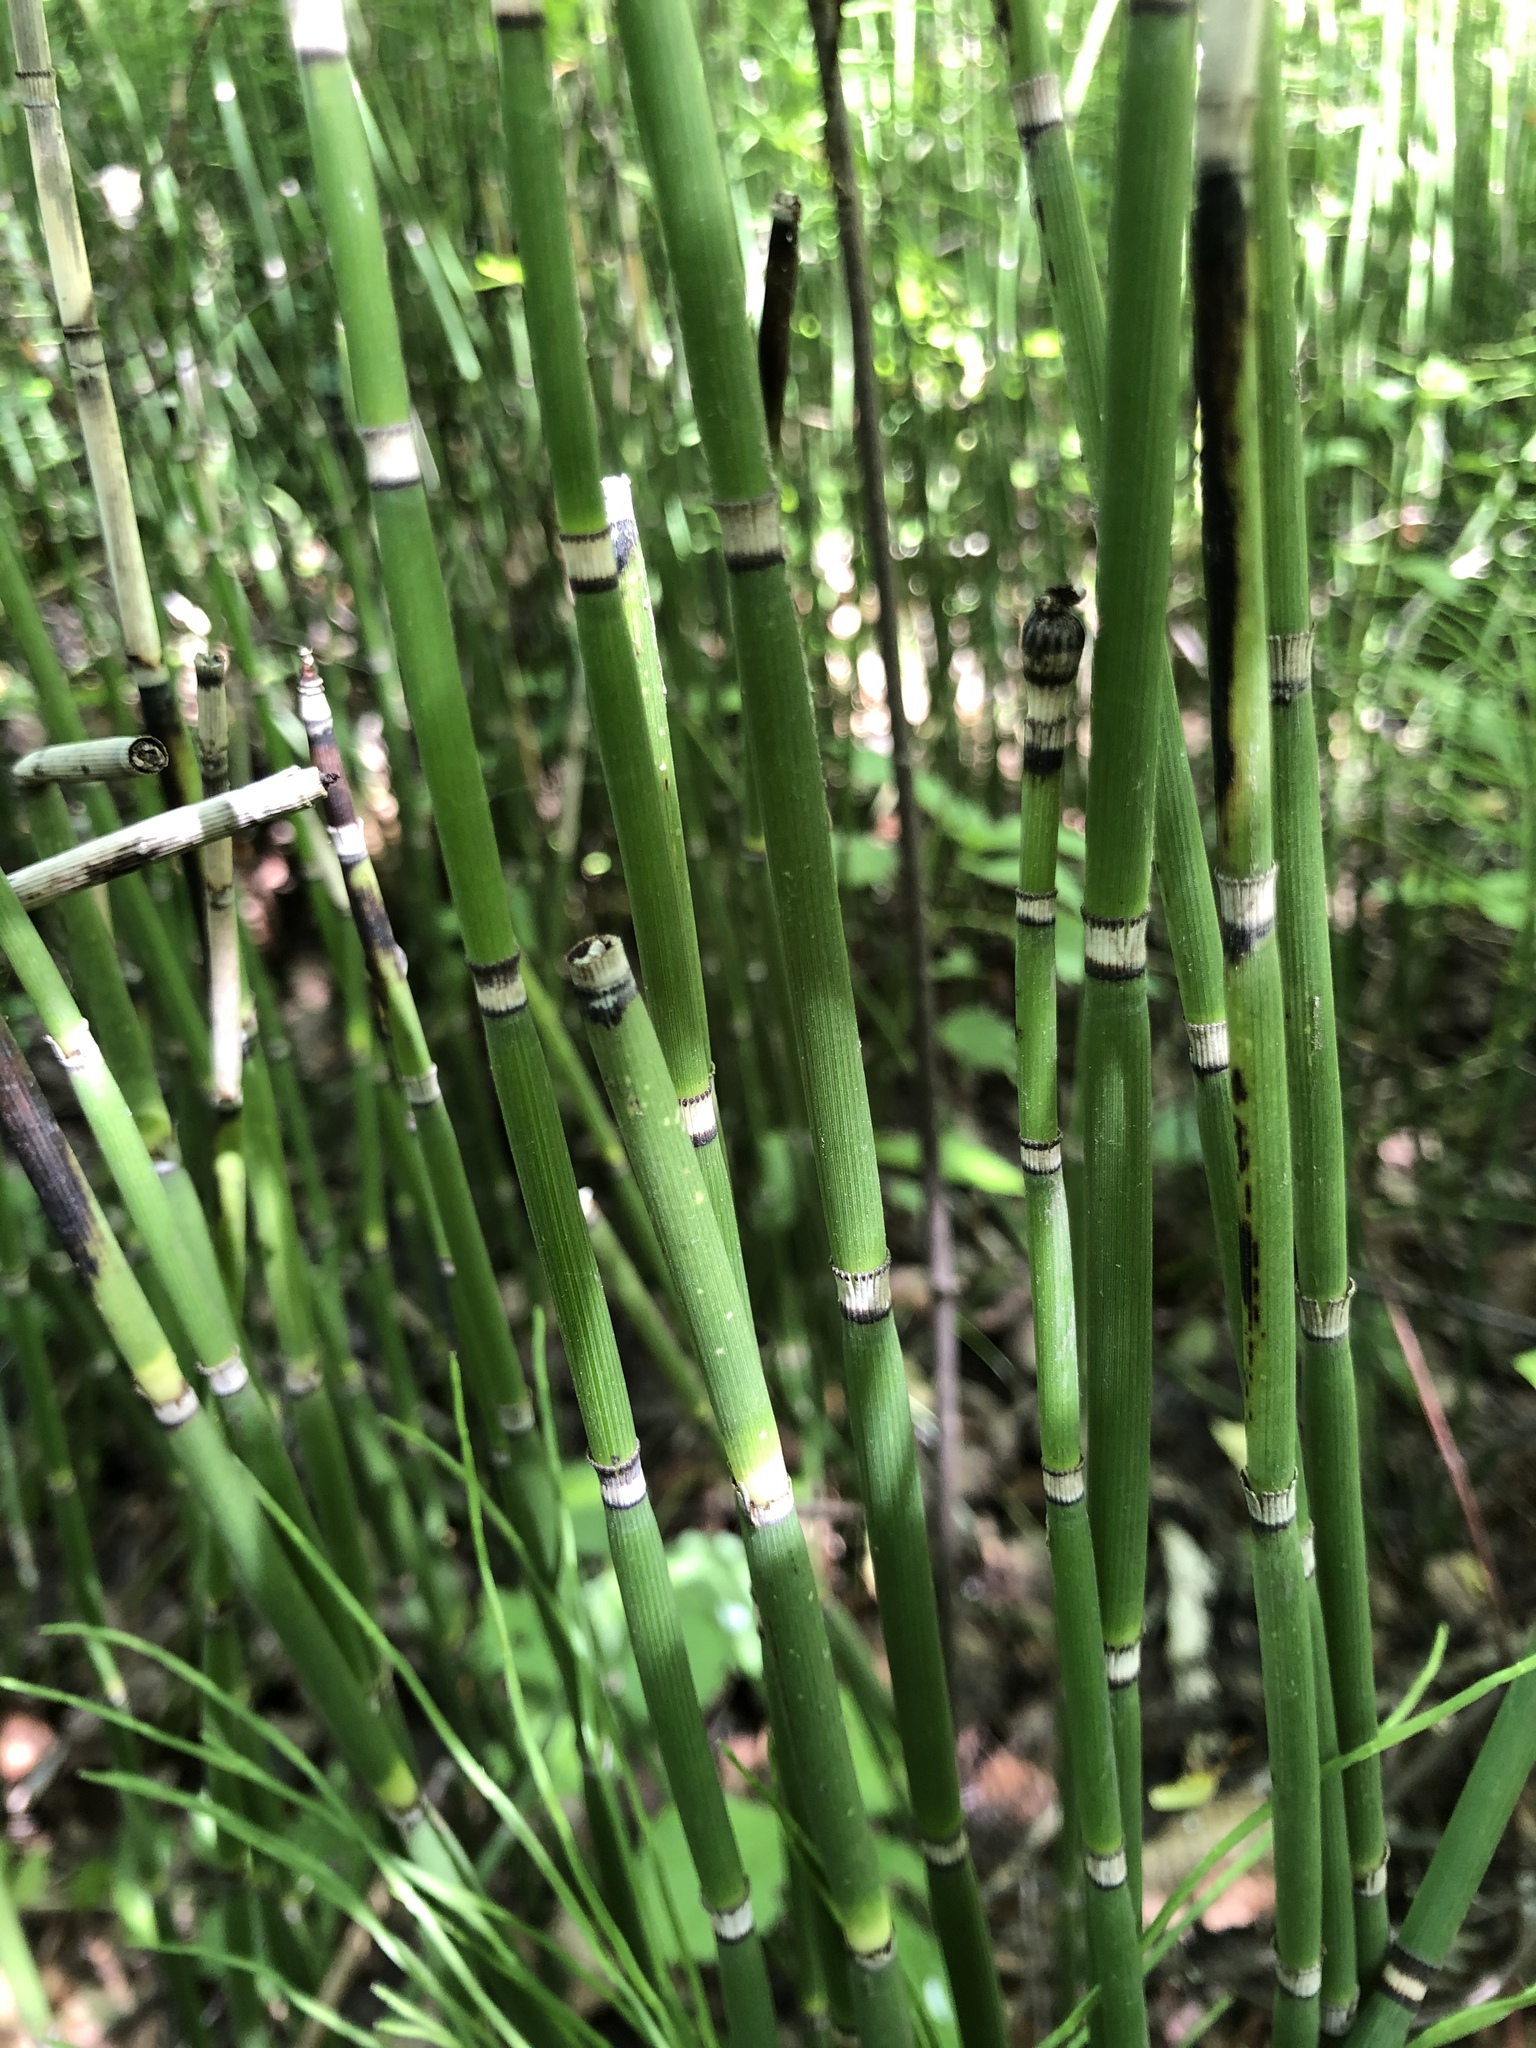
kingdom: Plantae
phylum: Tracheophyta
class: Polypodiopsida
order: Equisetales
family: Equisetaceae
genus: Equisetum
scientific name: Equisetum hyemale
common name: Rough horsetail
